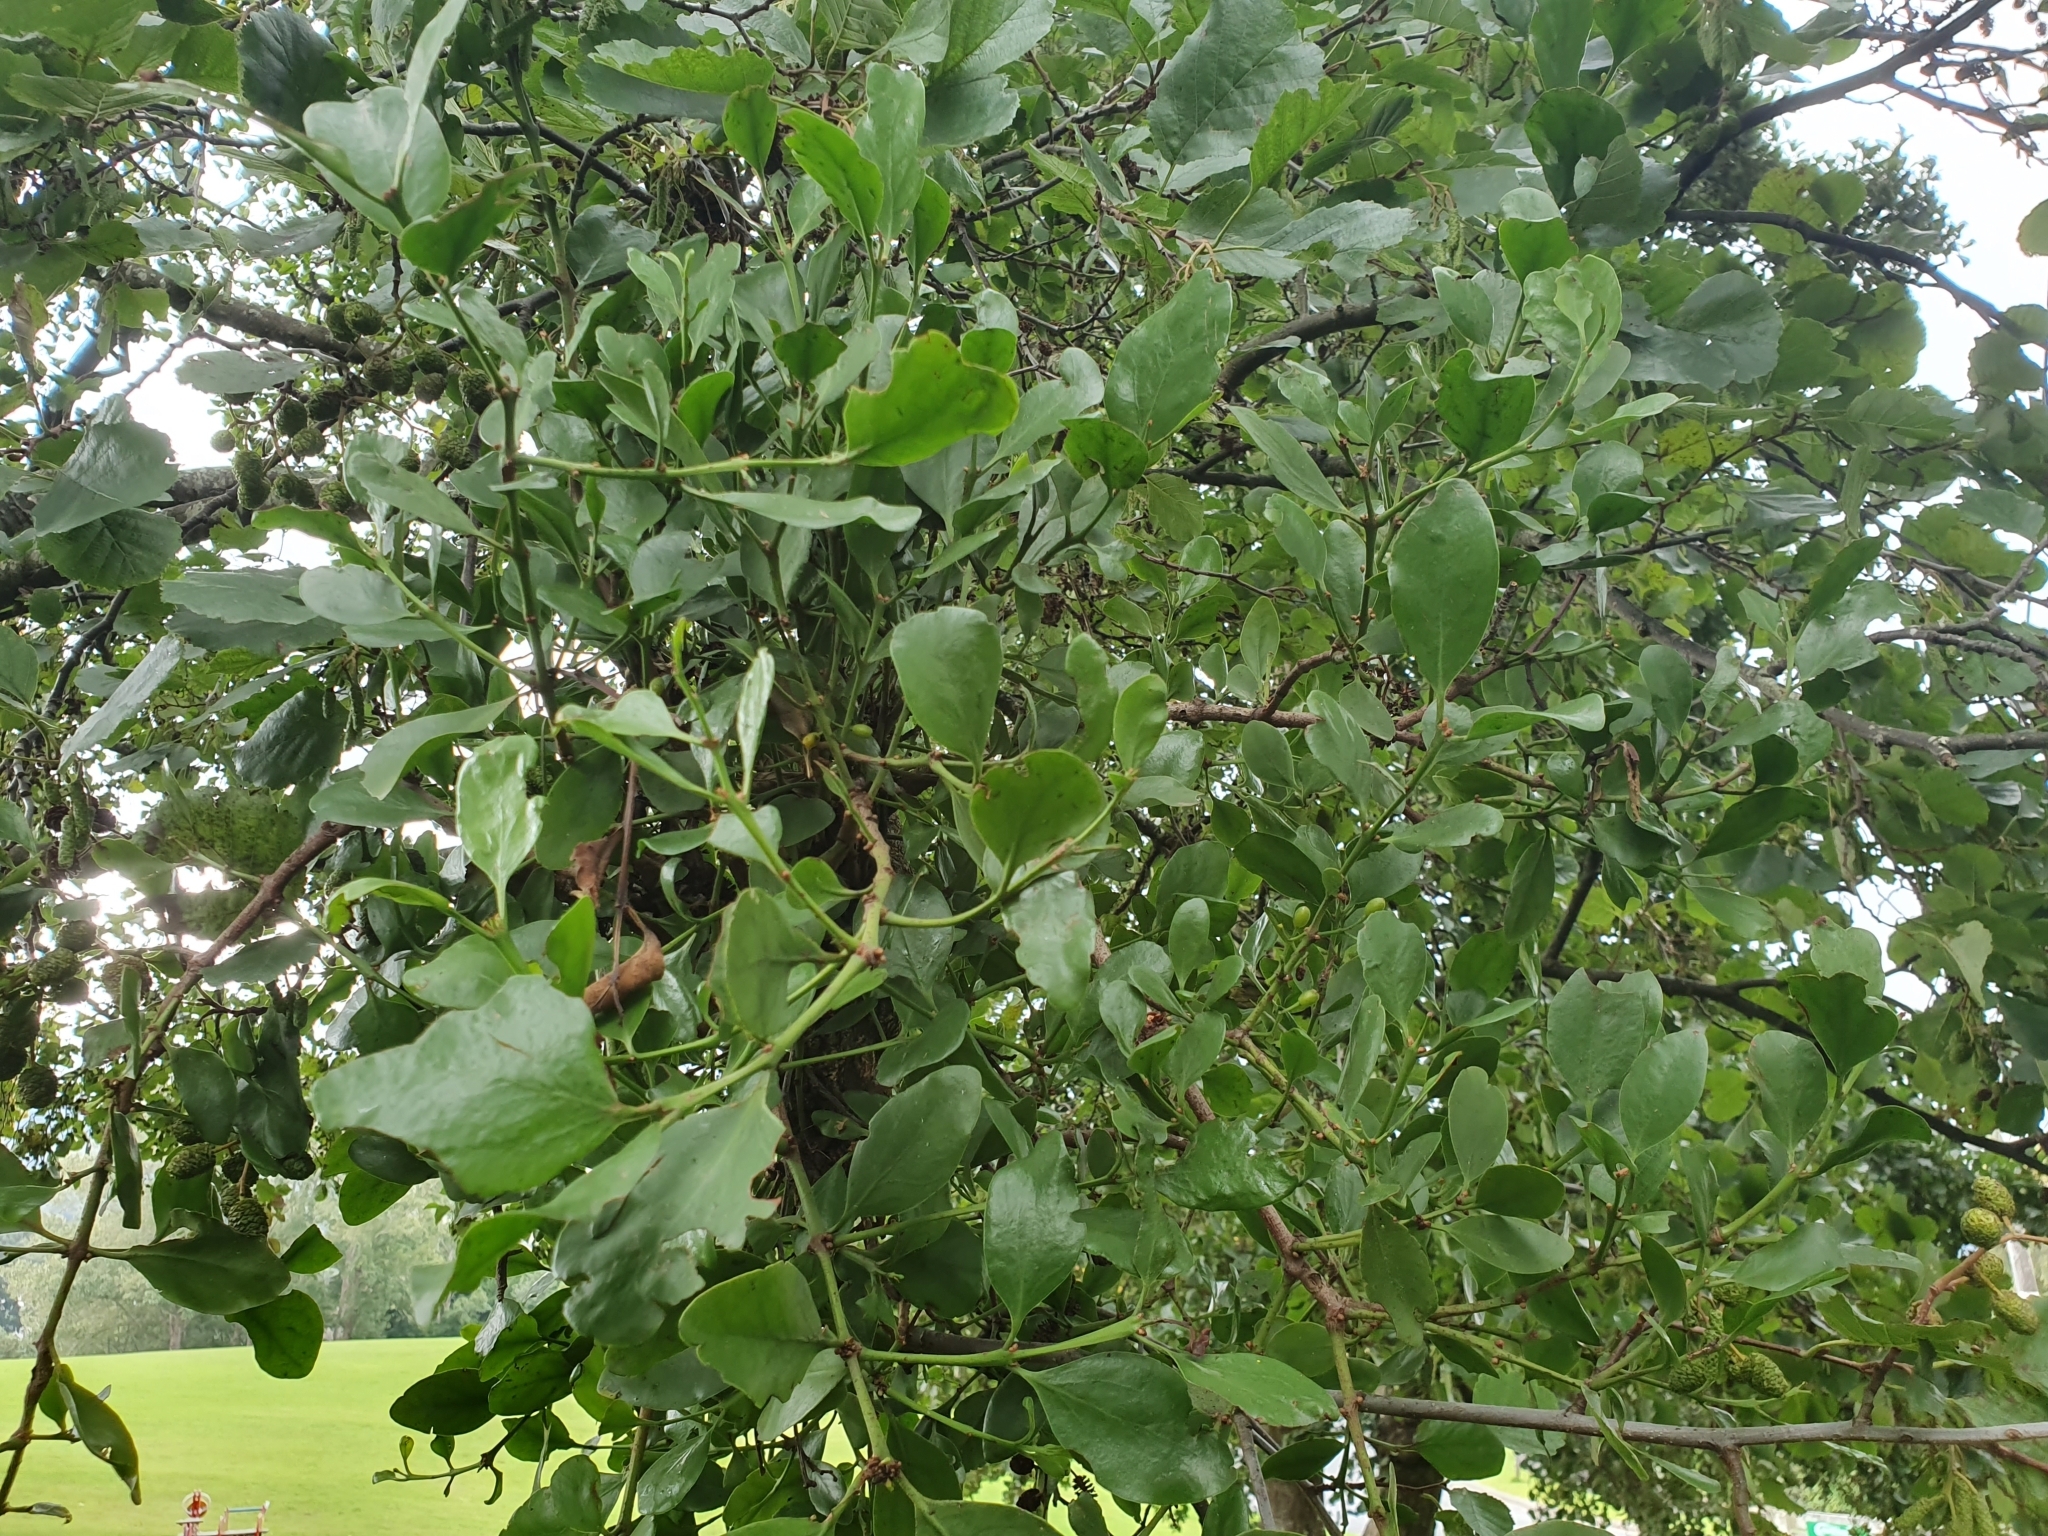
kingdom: Plantae
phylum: Tracheophyta
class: Magnoliopsida
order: Santalales
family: Loranthaceae
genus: Ileostylus
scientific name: Ileostylus micranthus
